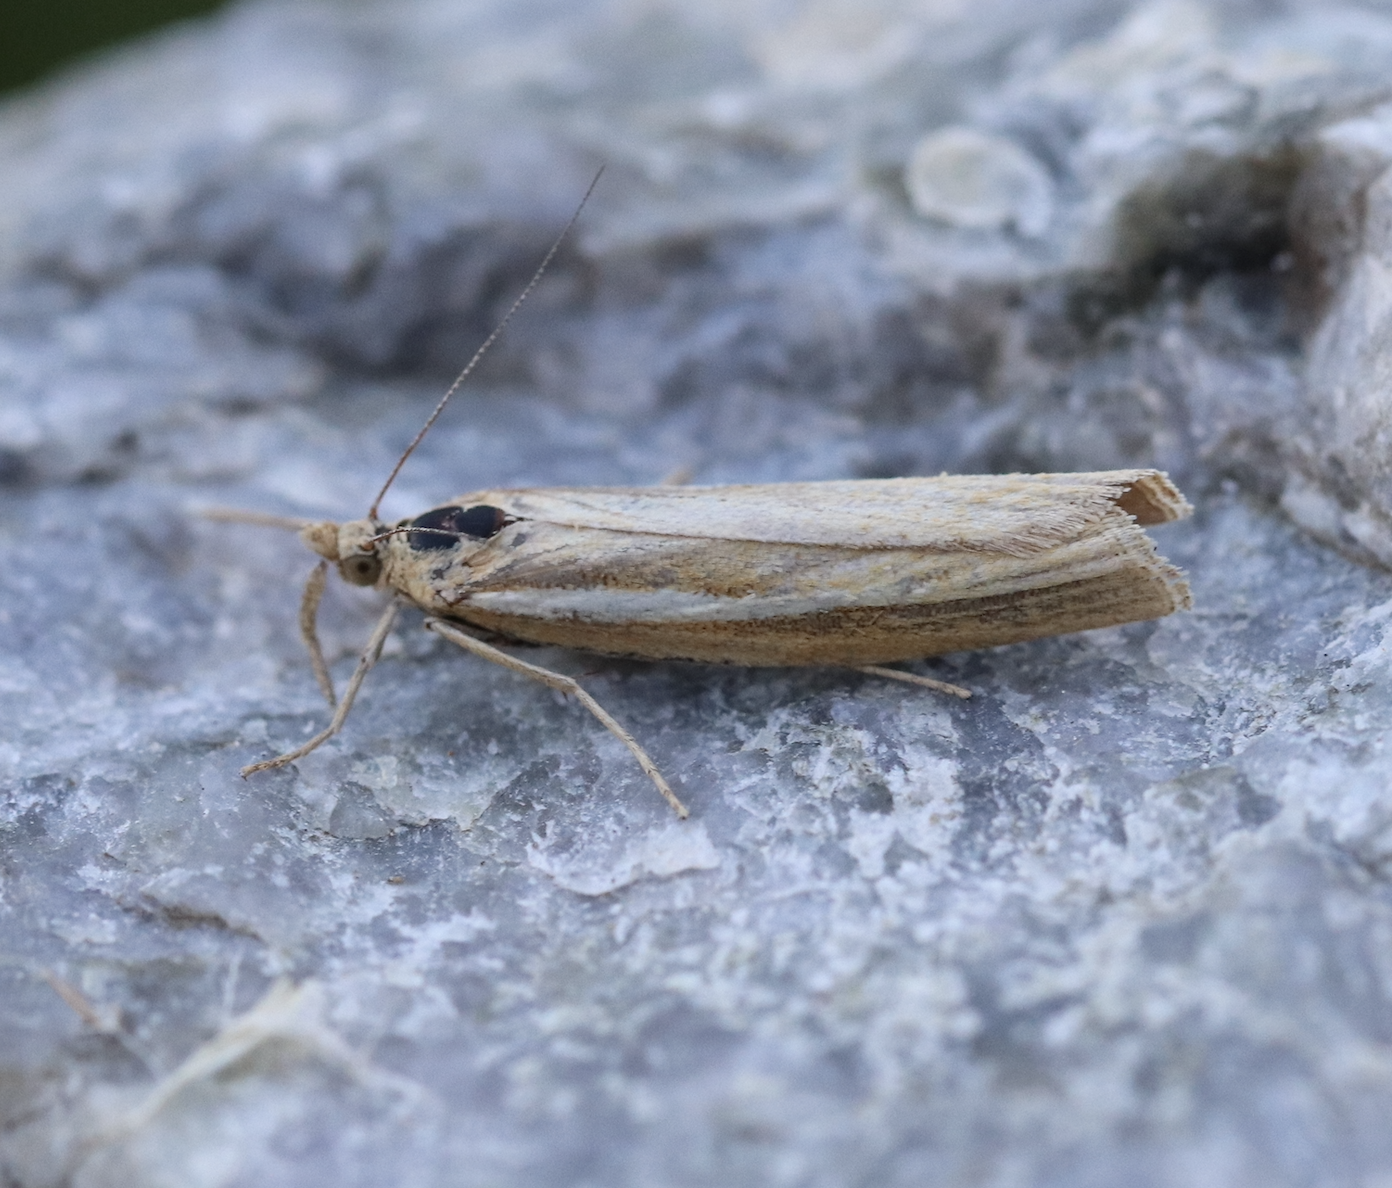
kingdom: Animalia
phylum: Arthropoda
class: Insecta
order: Lepidoptera
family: Crambidae
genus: Agriphila
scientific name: Agriphila tristellus
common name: Common grass-veneer
